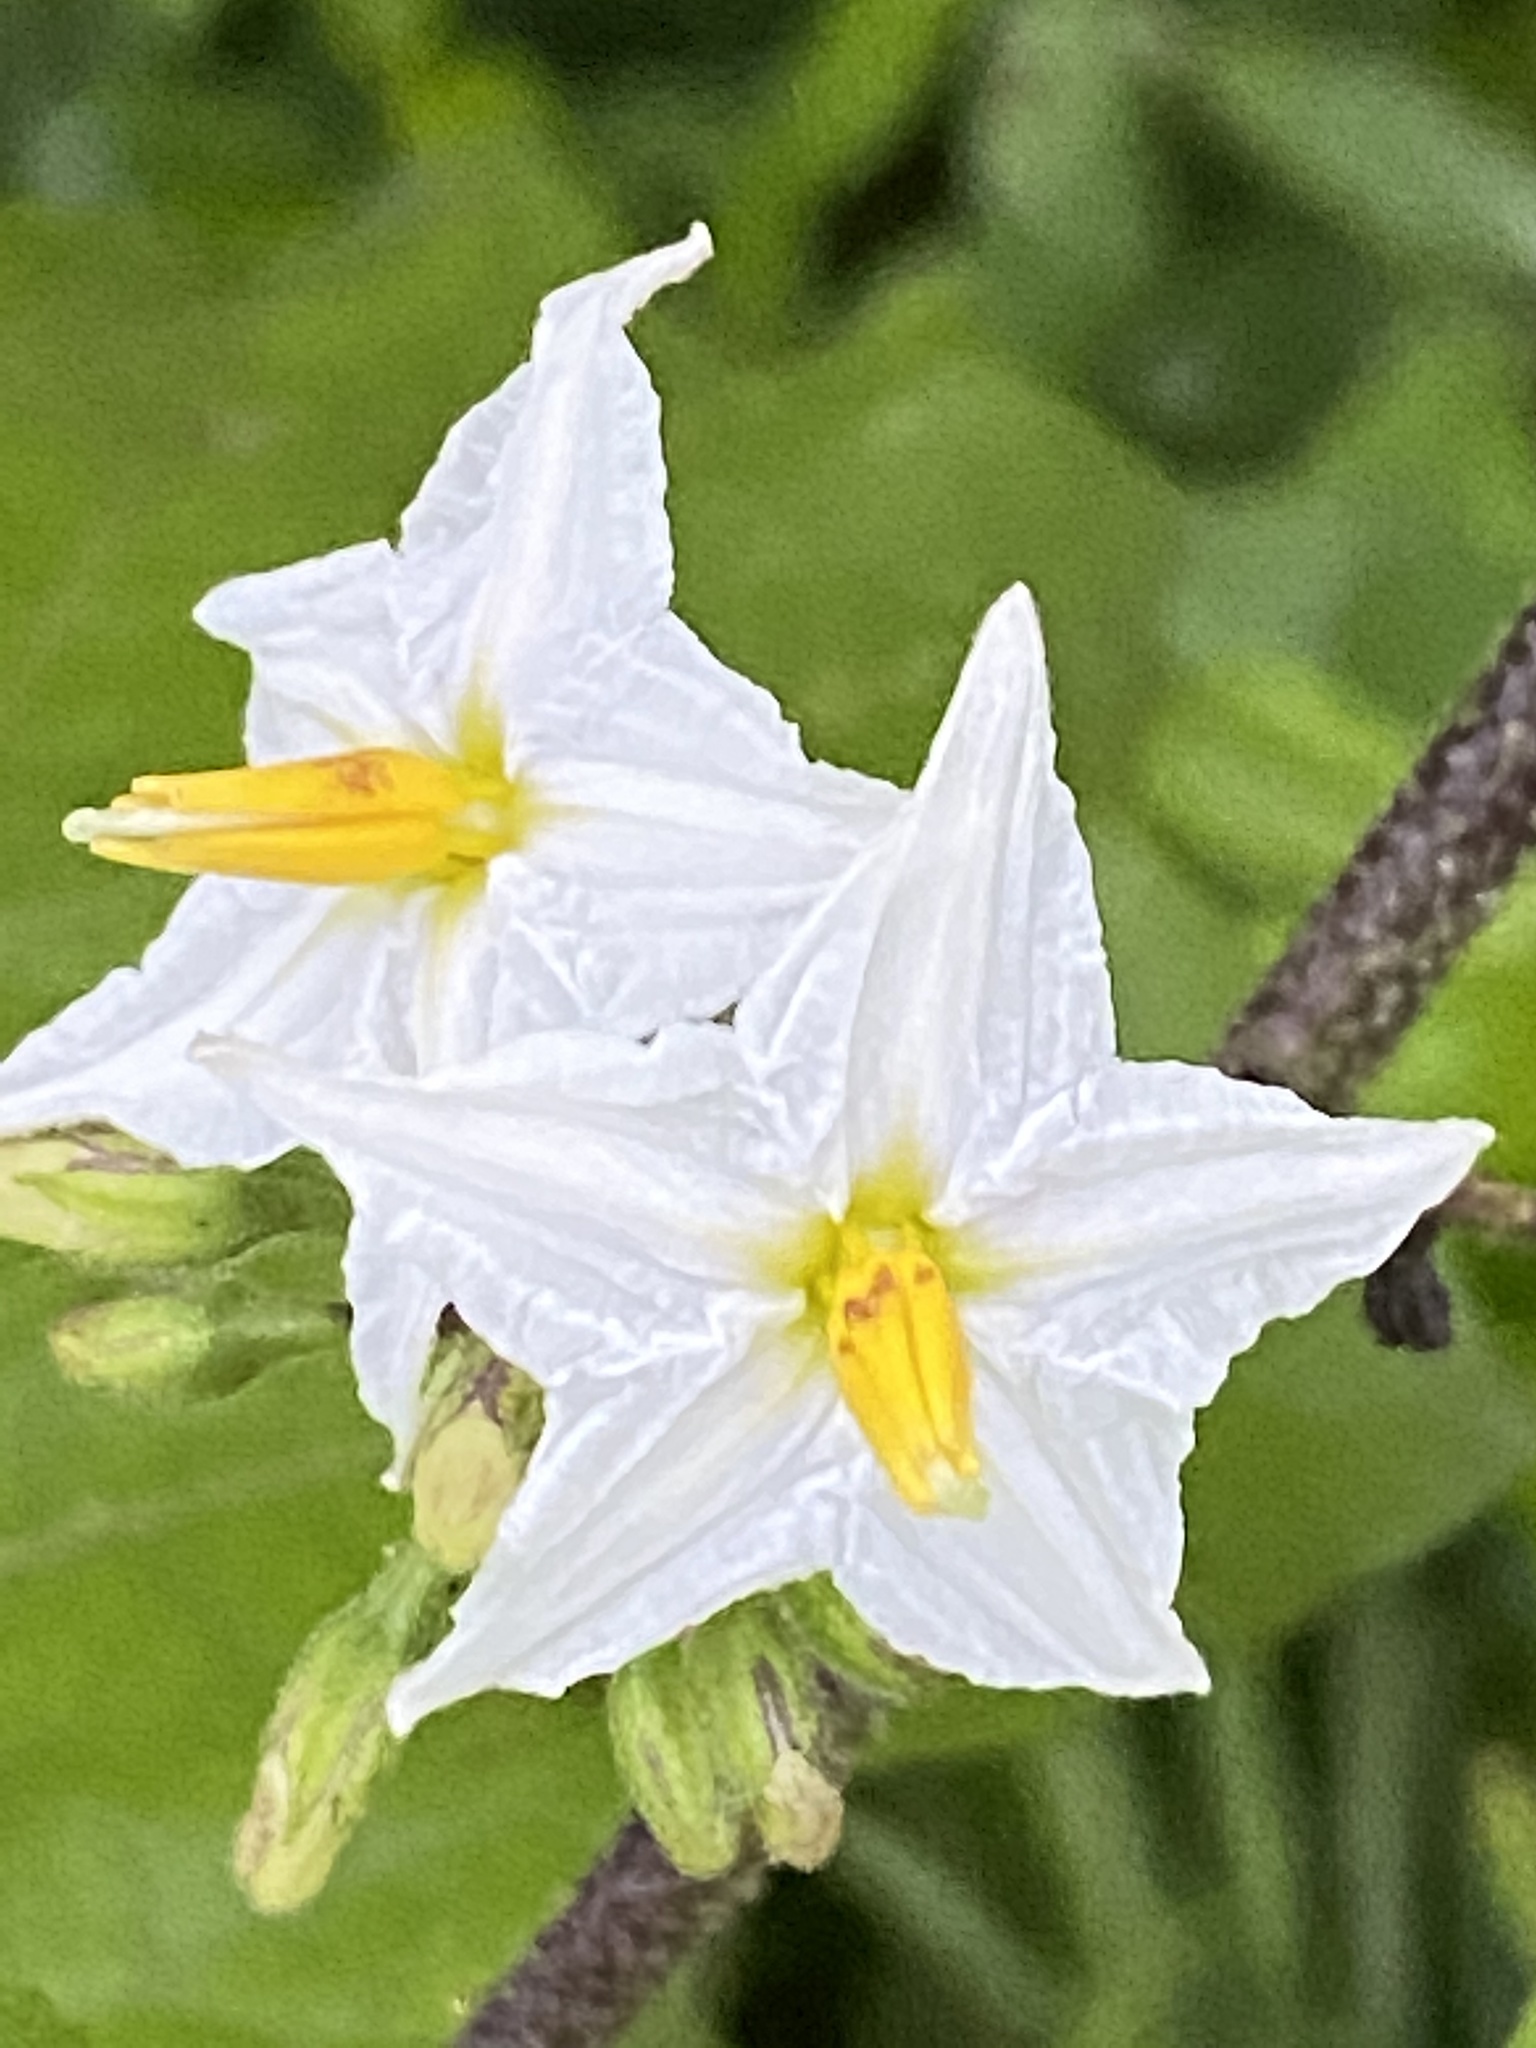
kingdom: Plantae
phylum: Tracheophyta
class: Magnoliopsida
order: Solanales
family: Solanaceae
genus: Solanum
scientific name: Solanum torvum
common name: Turkey berry
